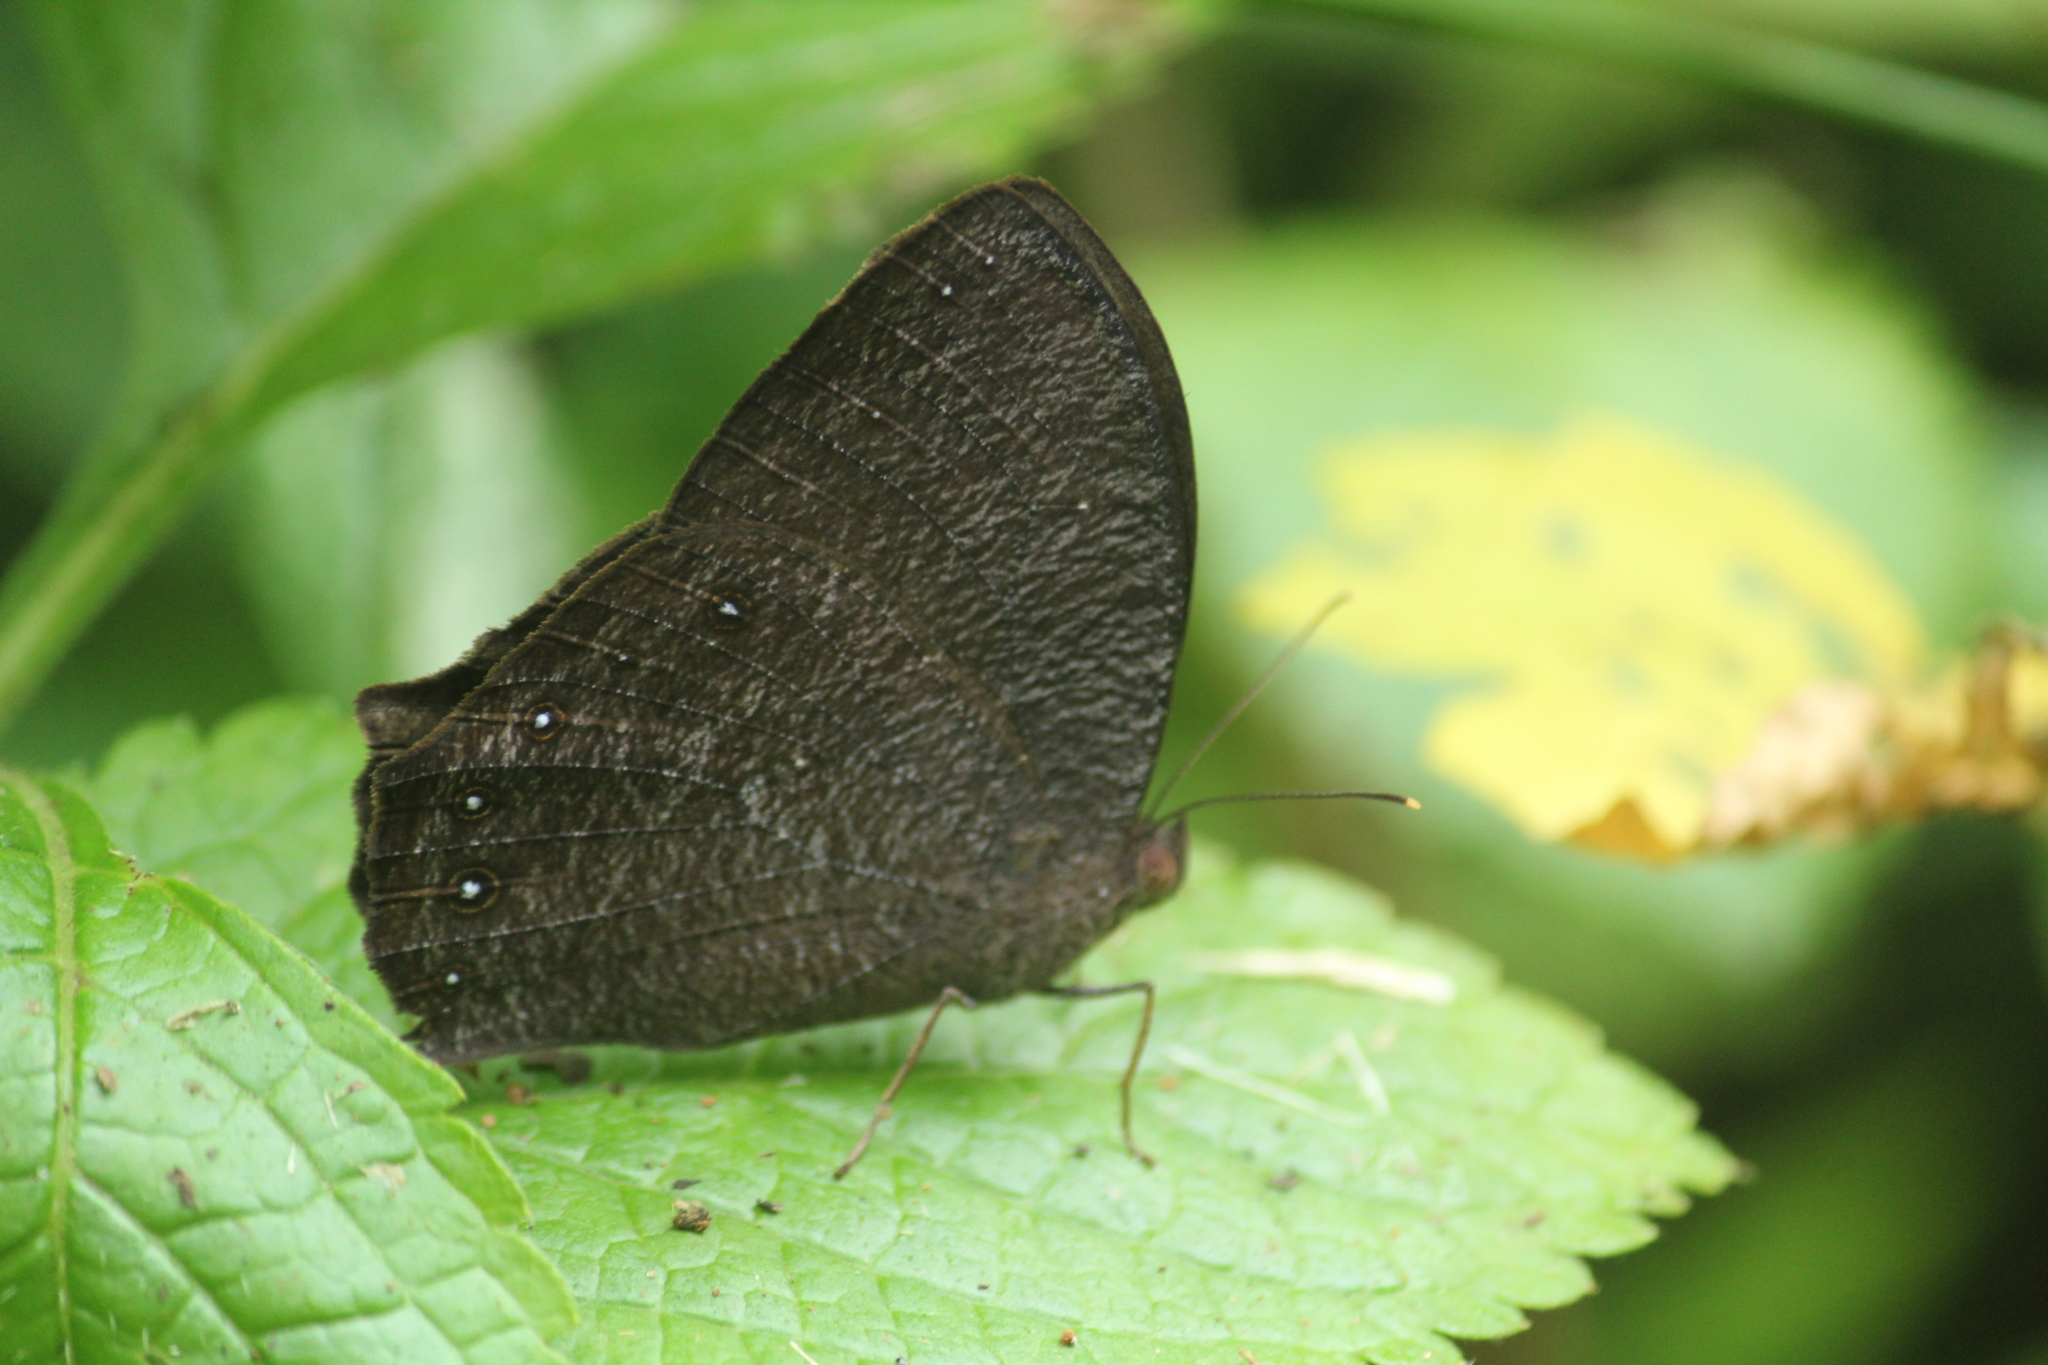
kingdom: Animalia
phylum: Arthropoda
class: Insecta
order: Lepidoptera
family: Nymphalidae
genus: Melanitis
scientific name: Melanitis phedima
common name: Dark evening brown
